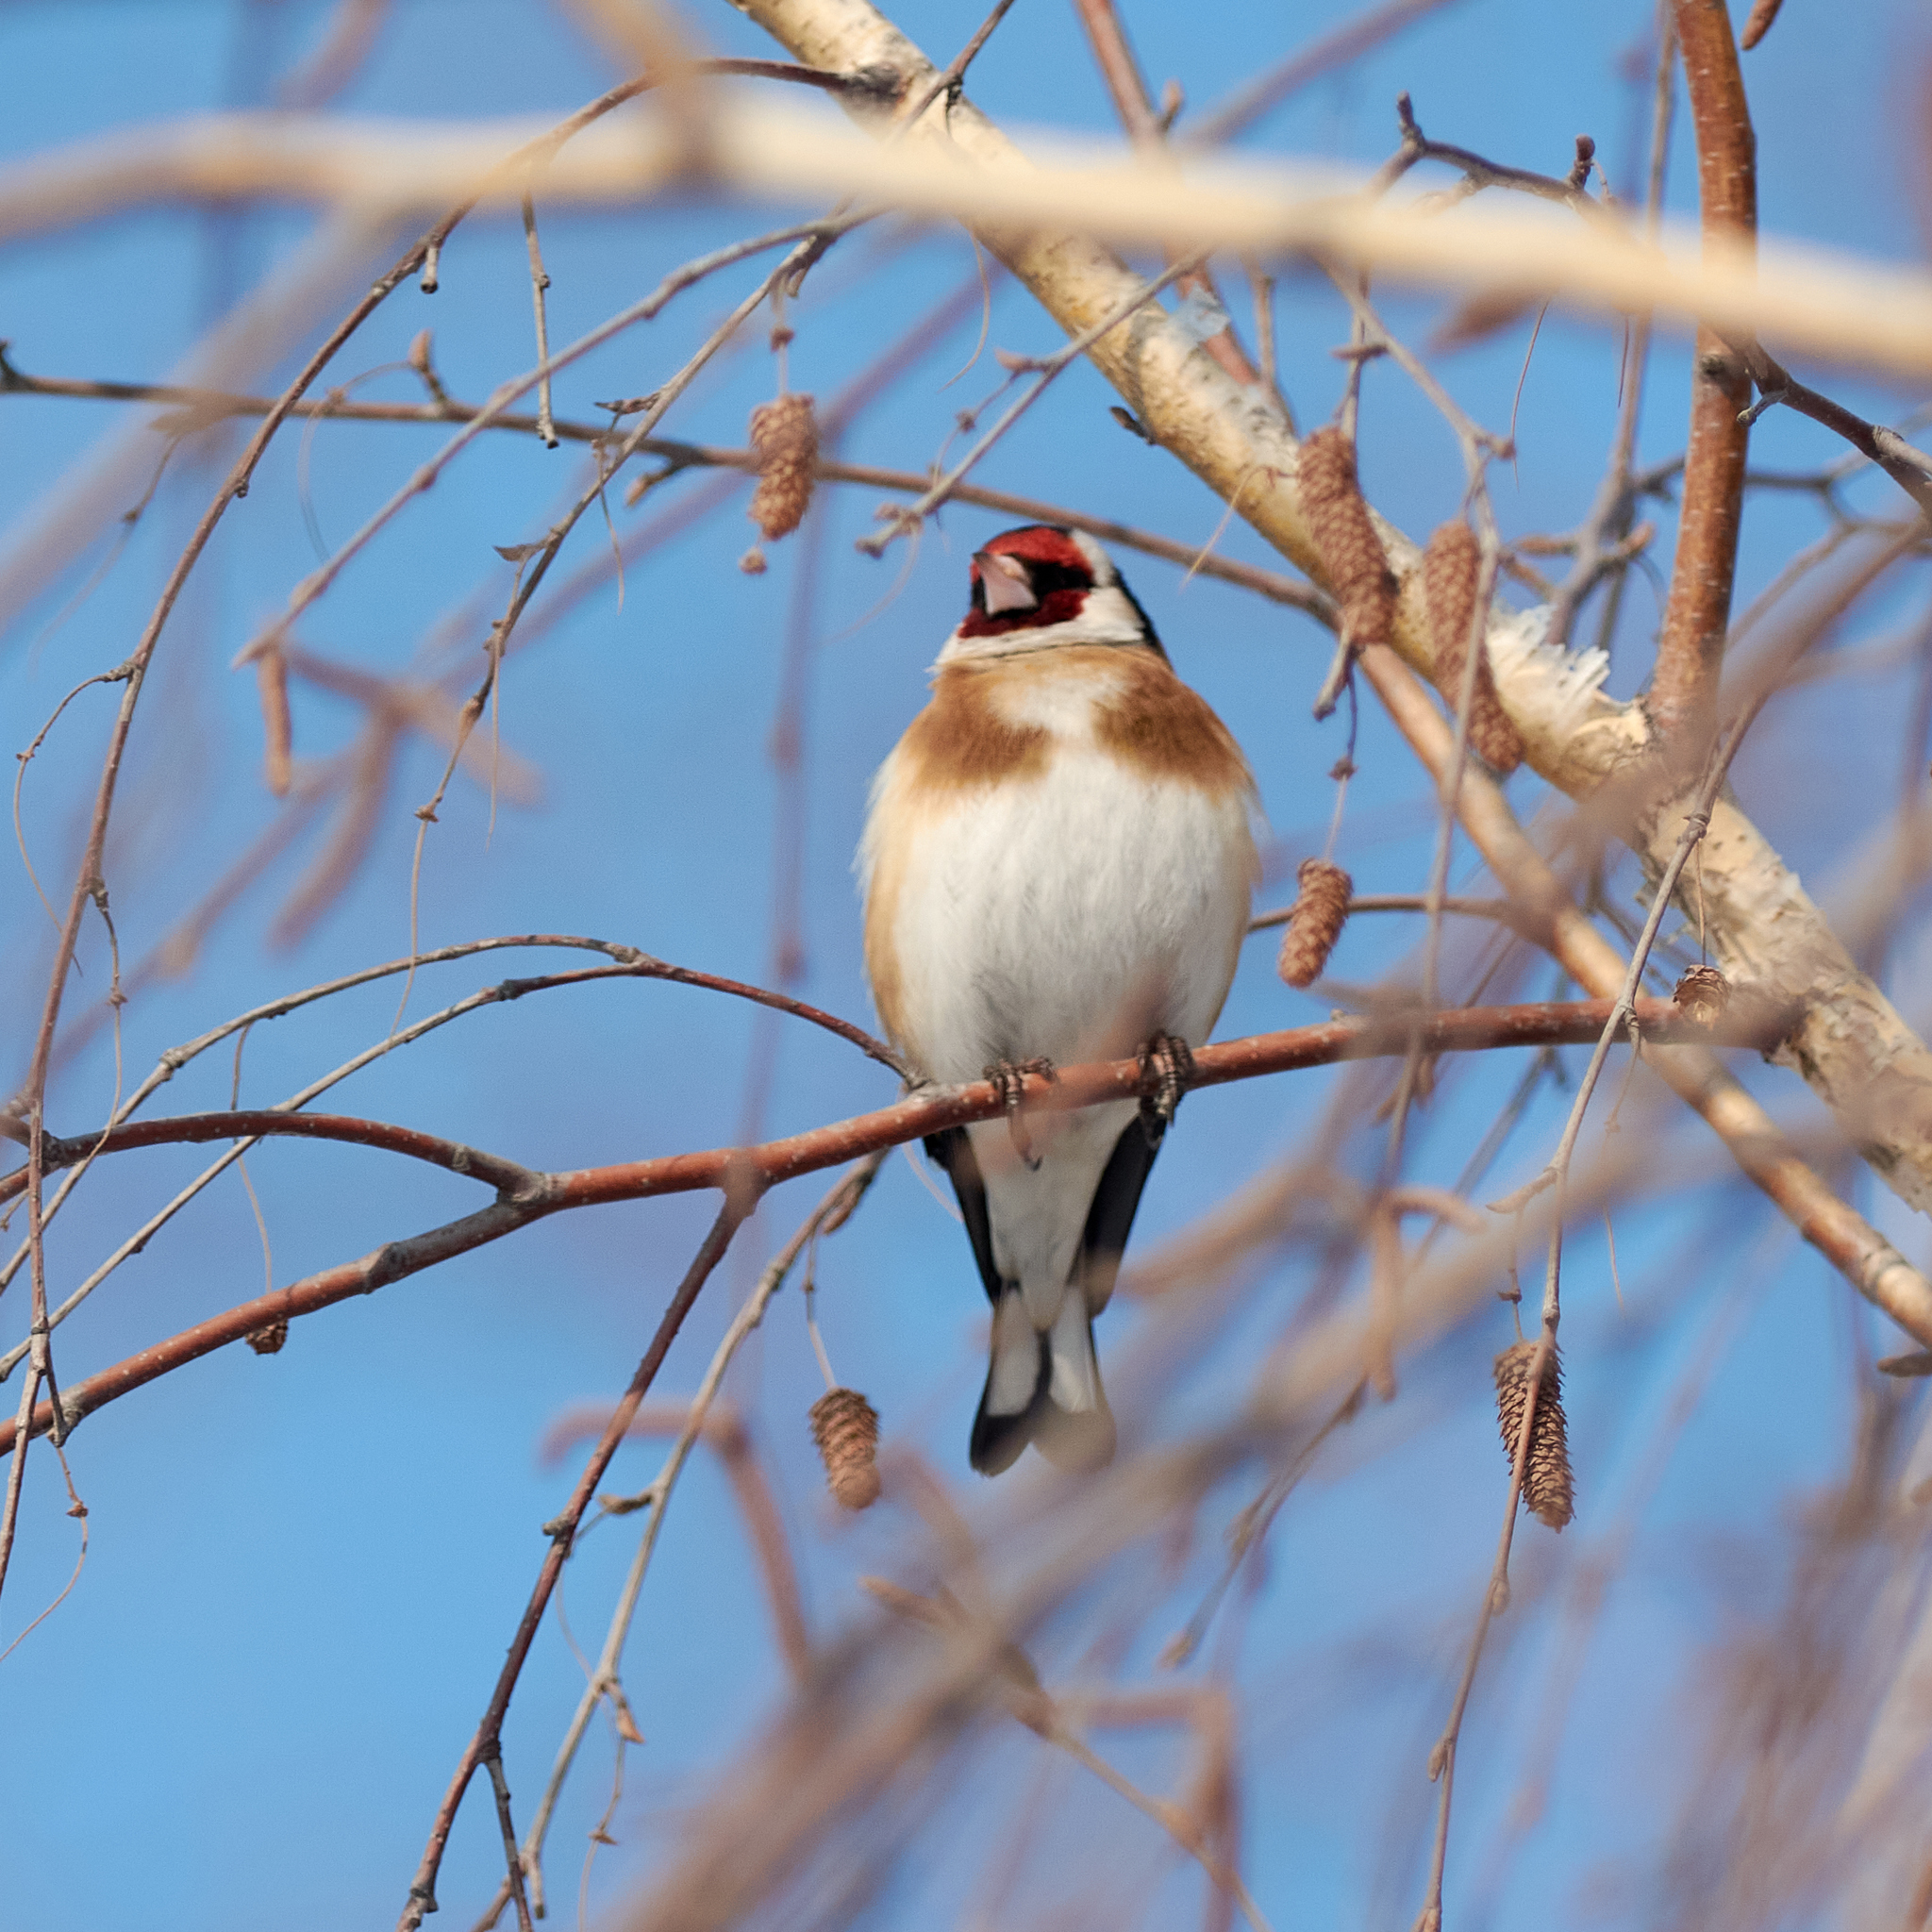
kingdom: Animalia
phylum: Chordata
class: Aves
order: Passeriformes
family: Fringillidae
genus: Carduelis
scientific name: Carduelis carduelis
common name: European goldfinch
